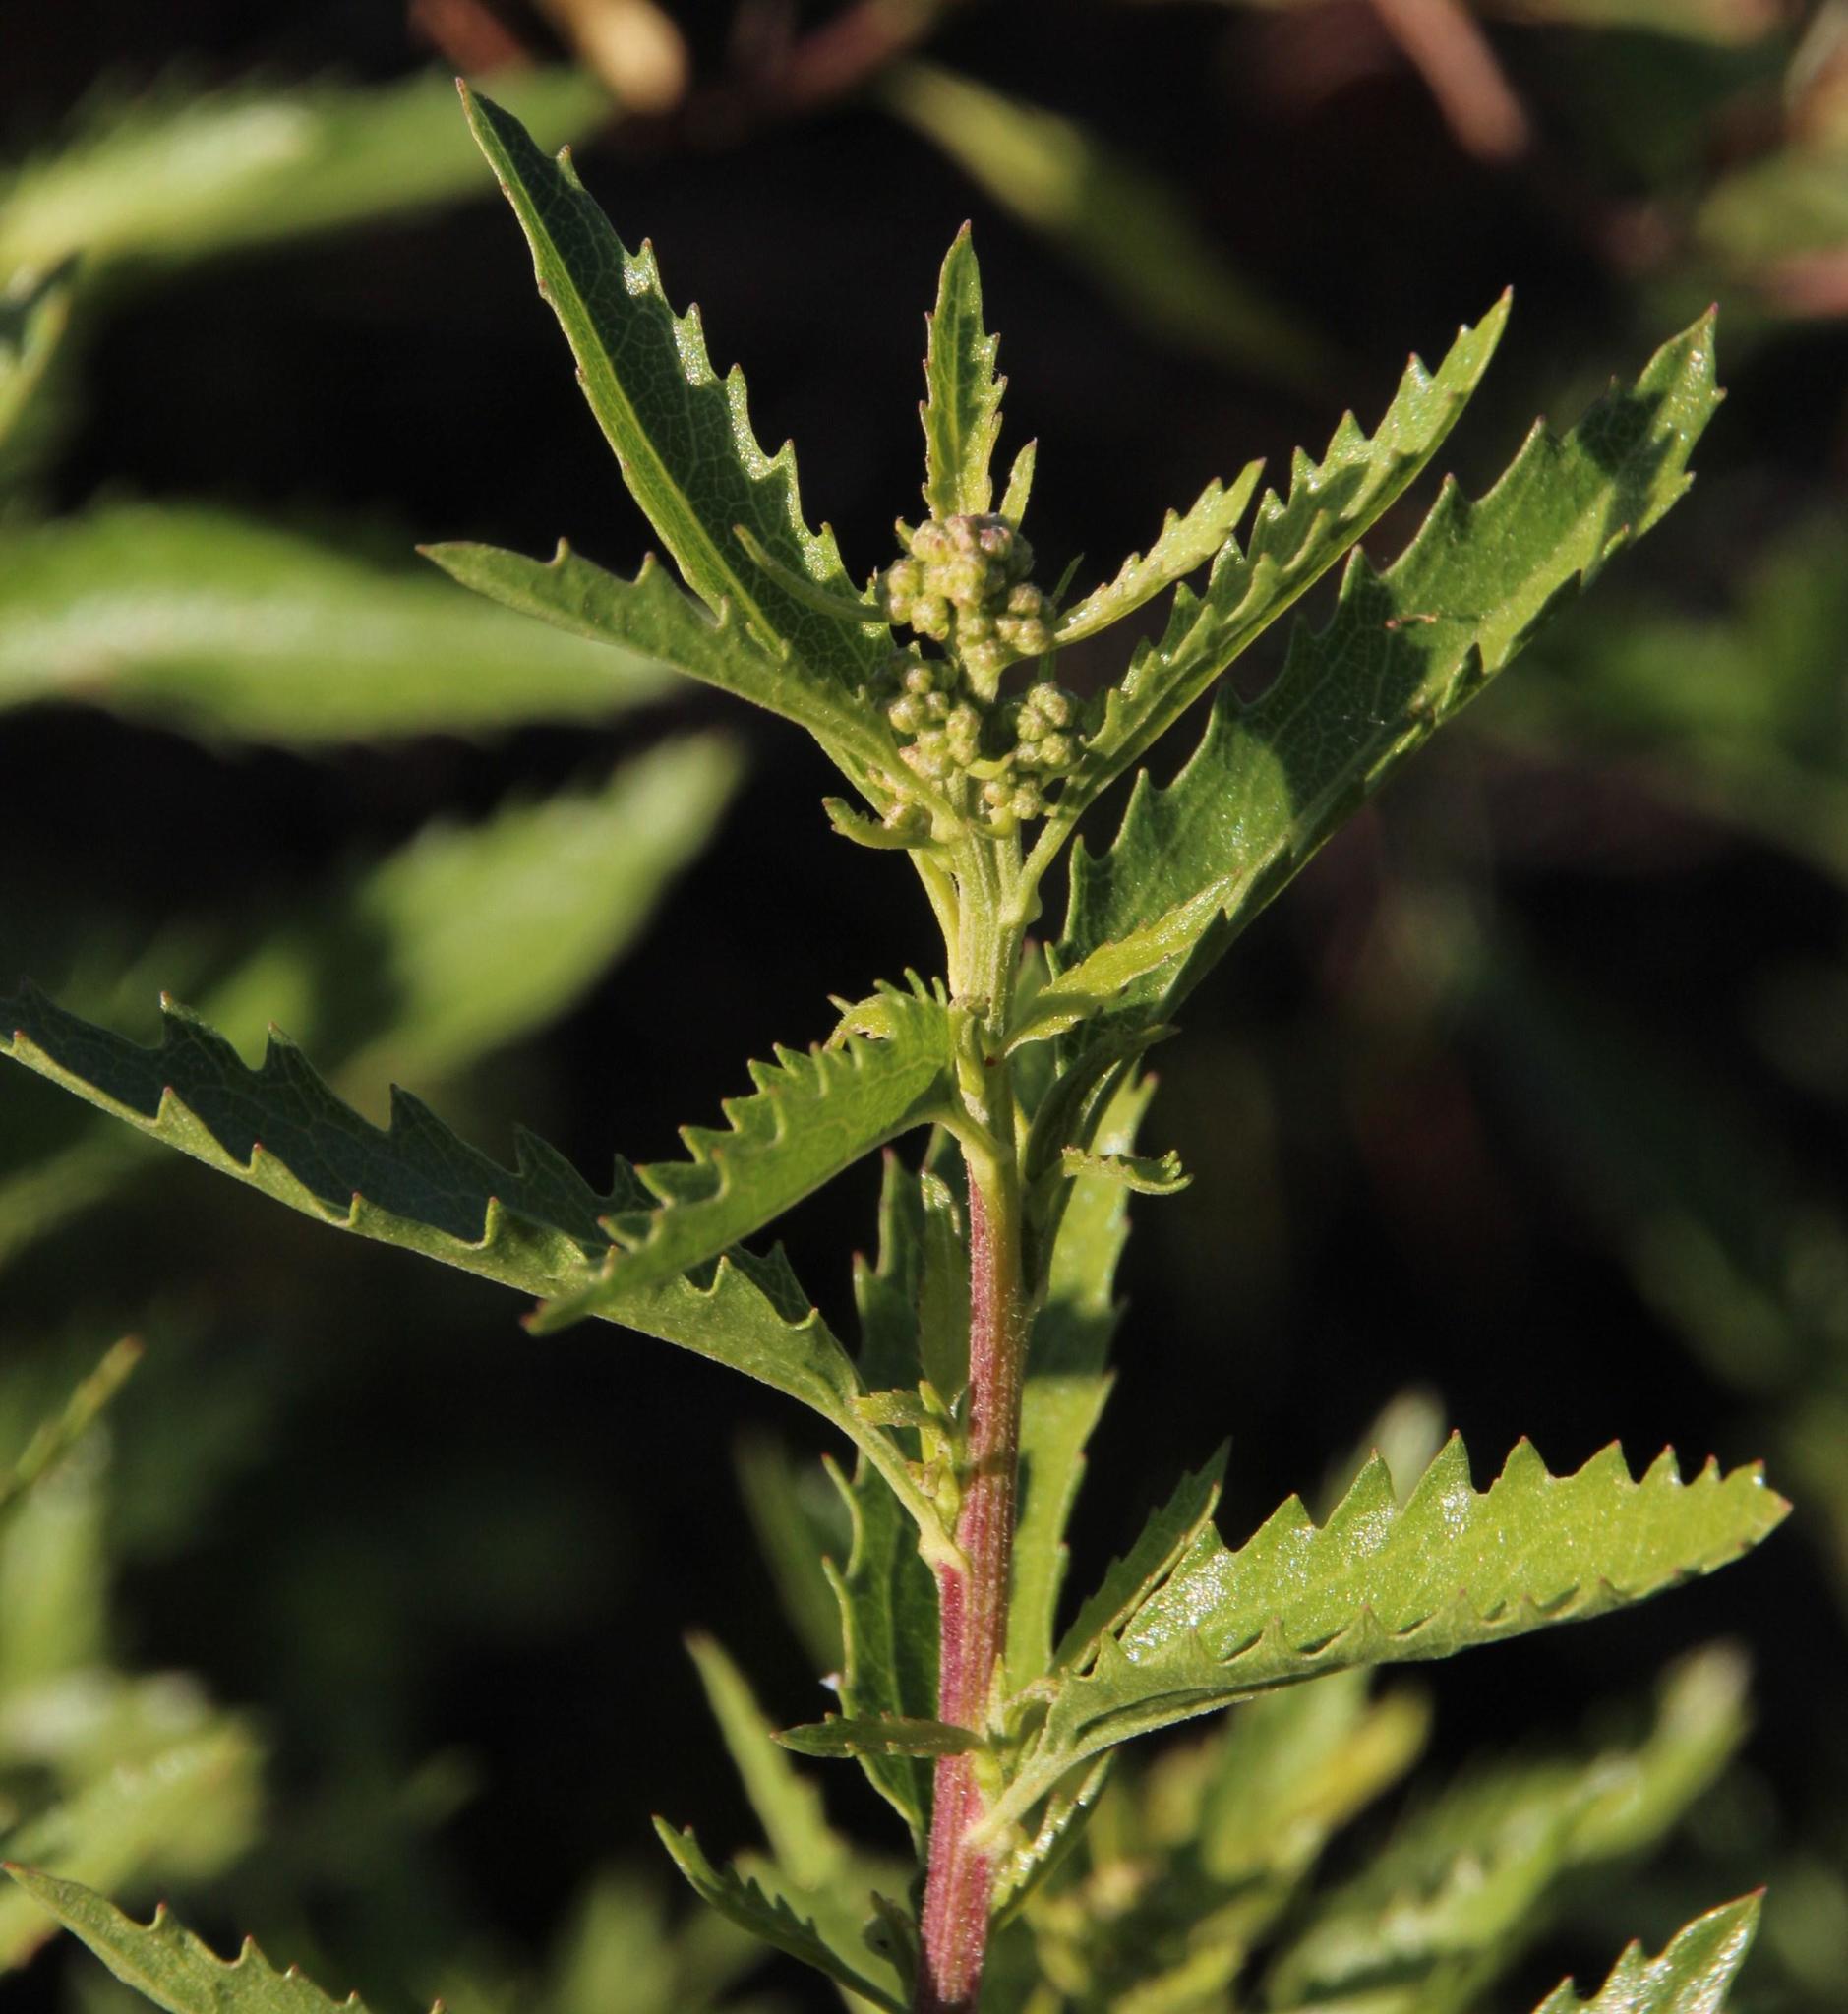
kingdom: Plantae
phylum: Tracheophyta
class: Magnoliopsida
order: Asterales
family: Asteraceae
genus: Nidorella
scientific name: Nidorella ivifolia
